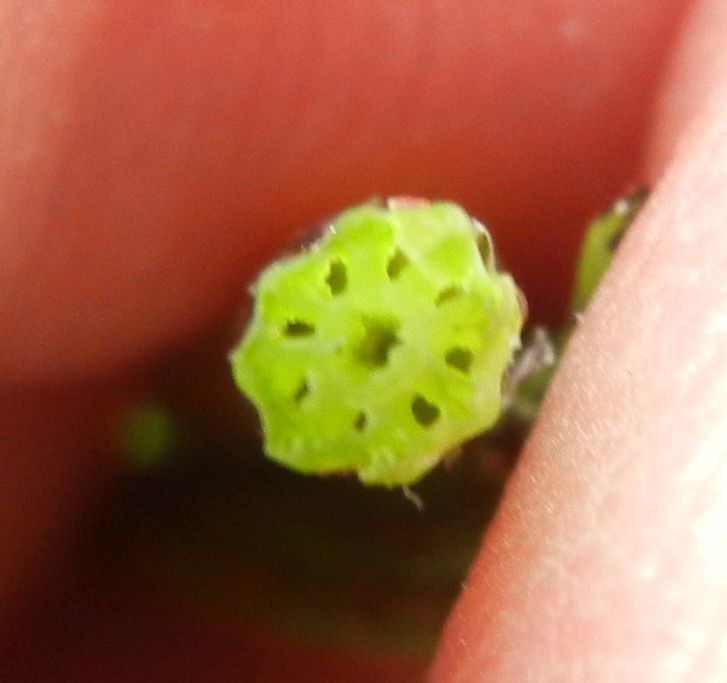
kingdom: Plantae
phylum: Tracheophyta
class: Polypodiopsida
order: Equisetales
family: Equisetaceae
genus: Equisetum
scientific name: Equisetum palustre
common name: Marsh horsetail
